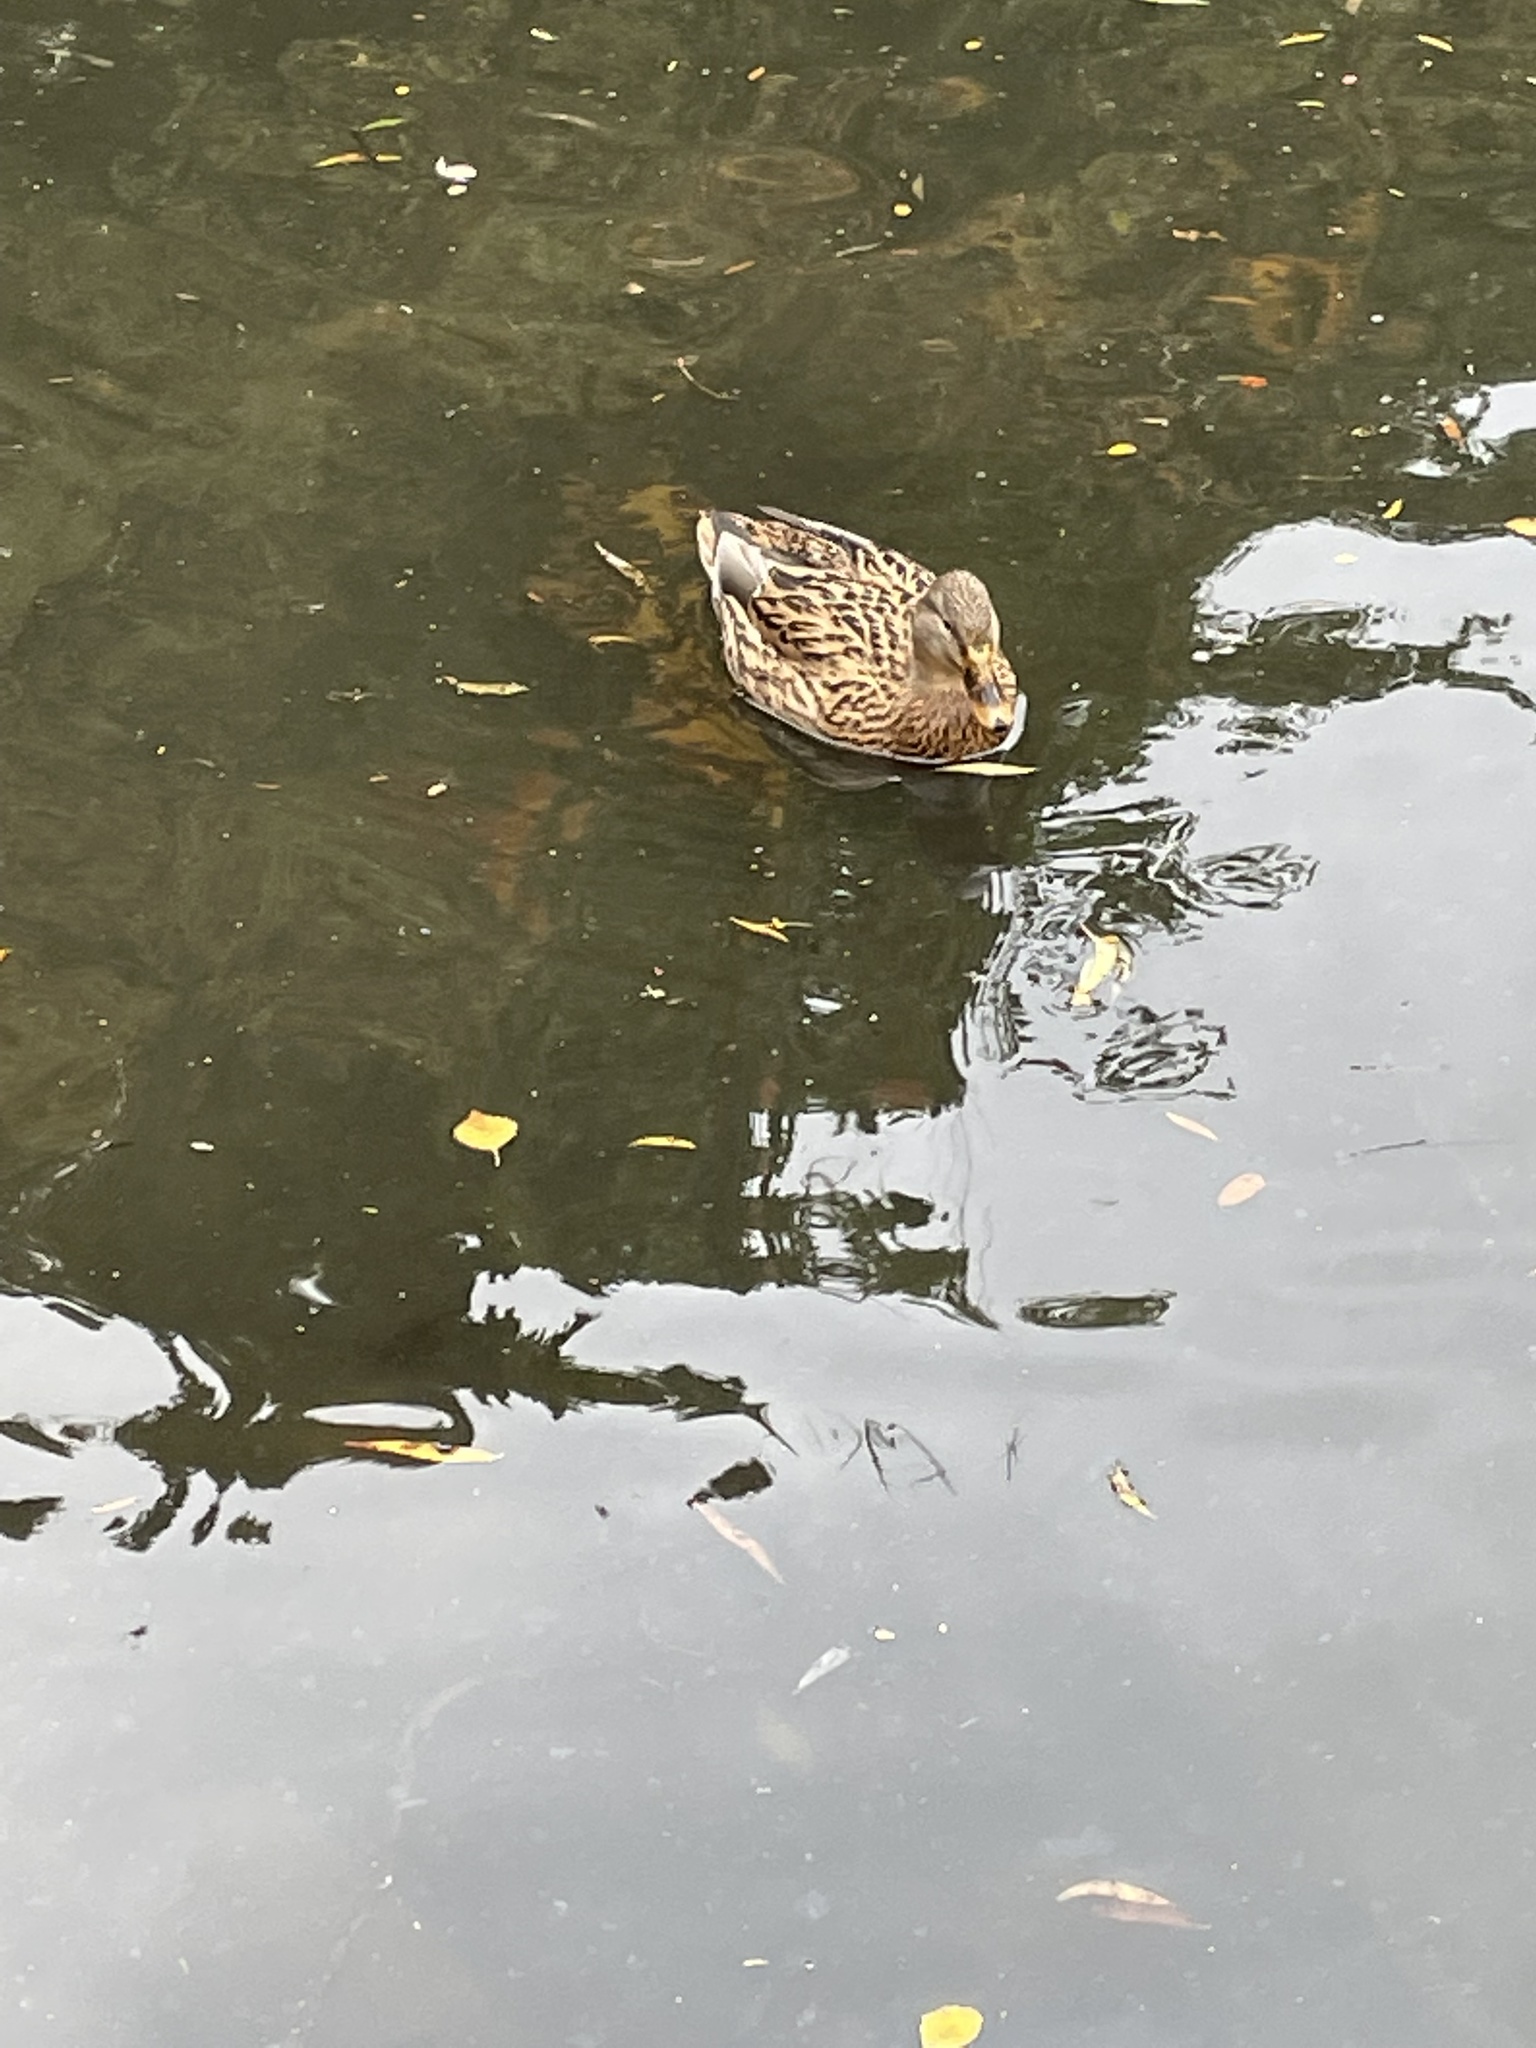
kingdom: Animalia
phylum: Chordata
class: Aves
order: Anseriformes
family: Anatidae
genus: Anas
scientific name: Anas platyrhynchos
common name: Mallard
